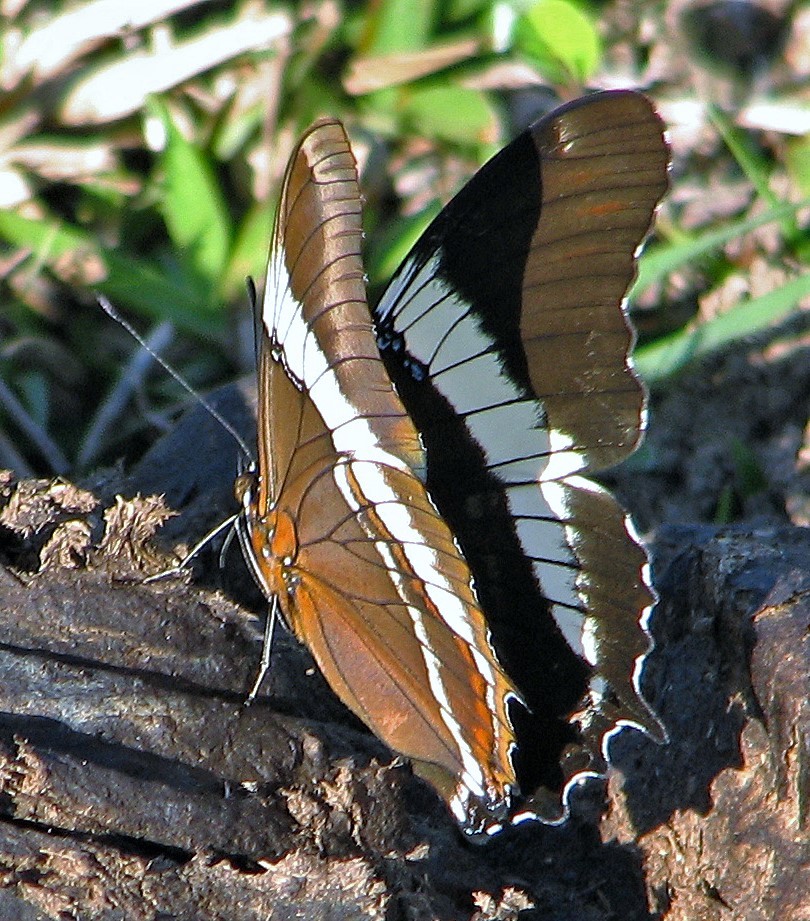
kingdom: Animalia
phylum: Arthropoda
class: Insecta
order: Lepidoptera
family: Nymphalidae
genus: Siproeta
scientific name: Siproeta epaphus
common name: Rusty-tipped page
